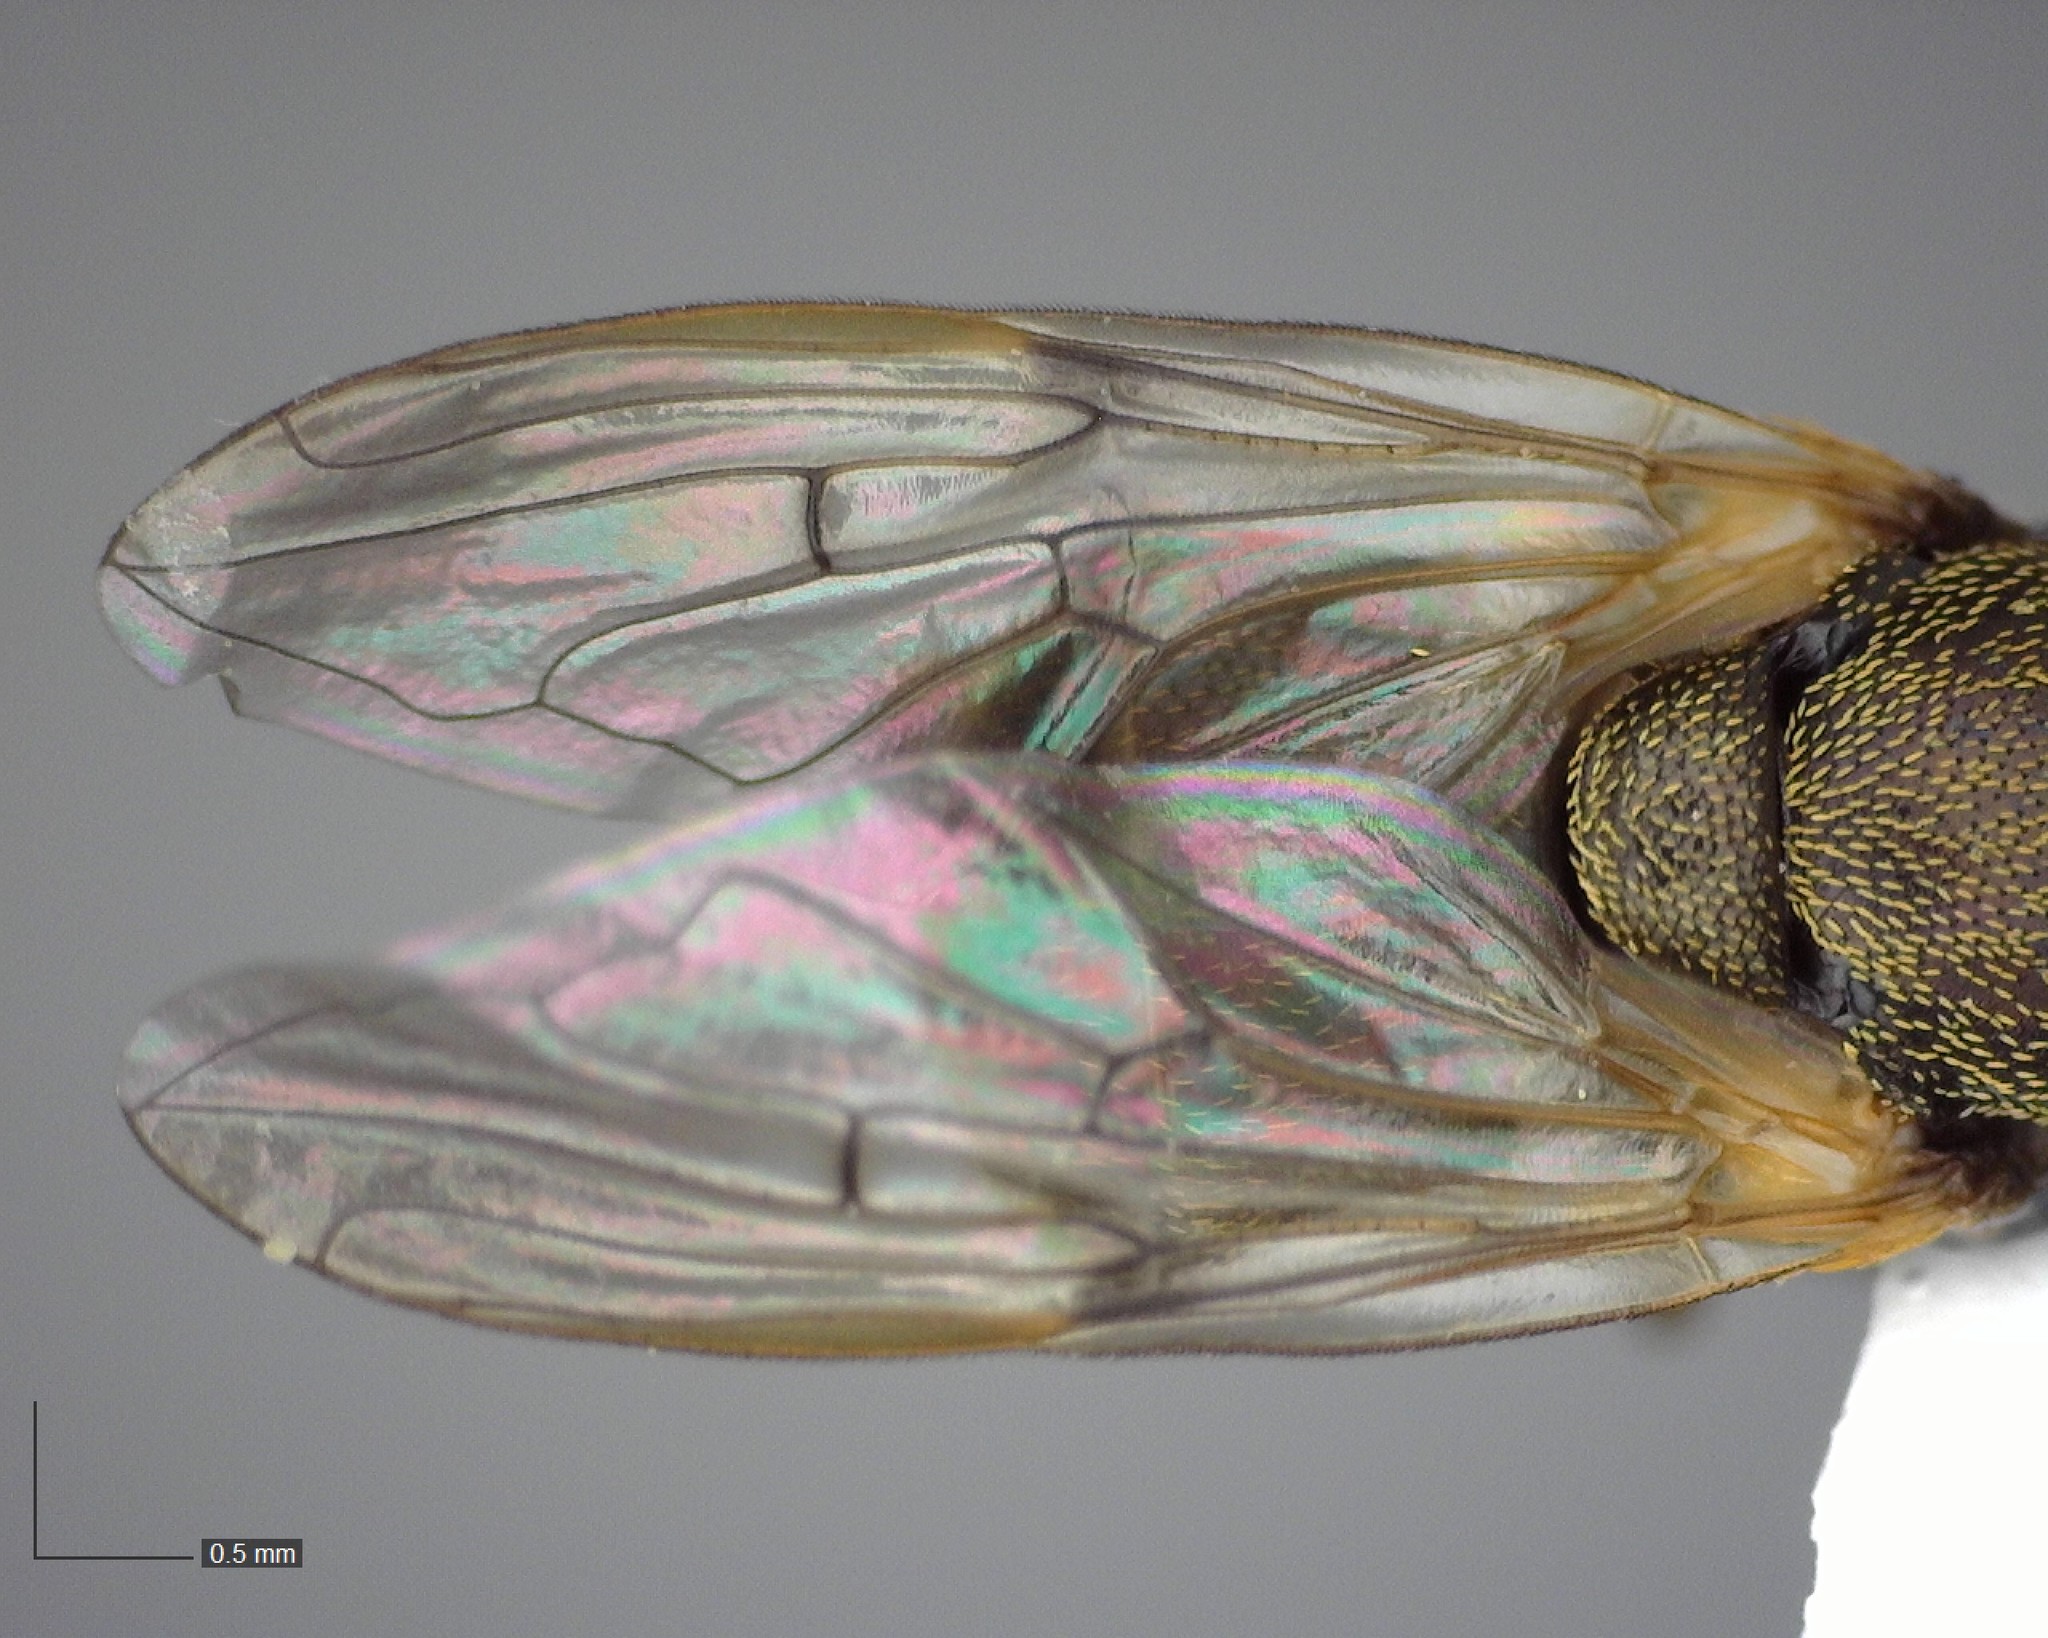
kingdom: Animalia
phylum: Arthropoda
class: Insecta
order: Diptera
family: Syrphidae
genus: Myolepta
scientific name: Myolepta strigilata
